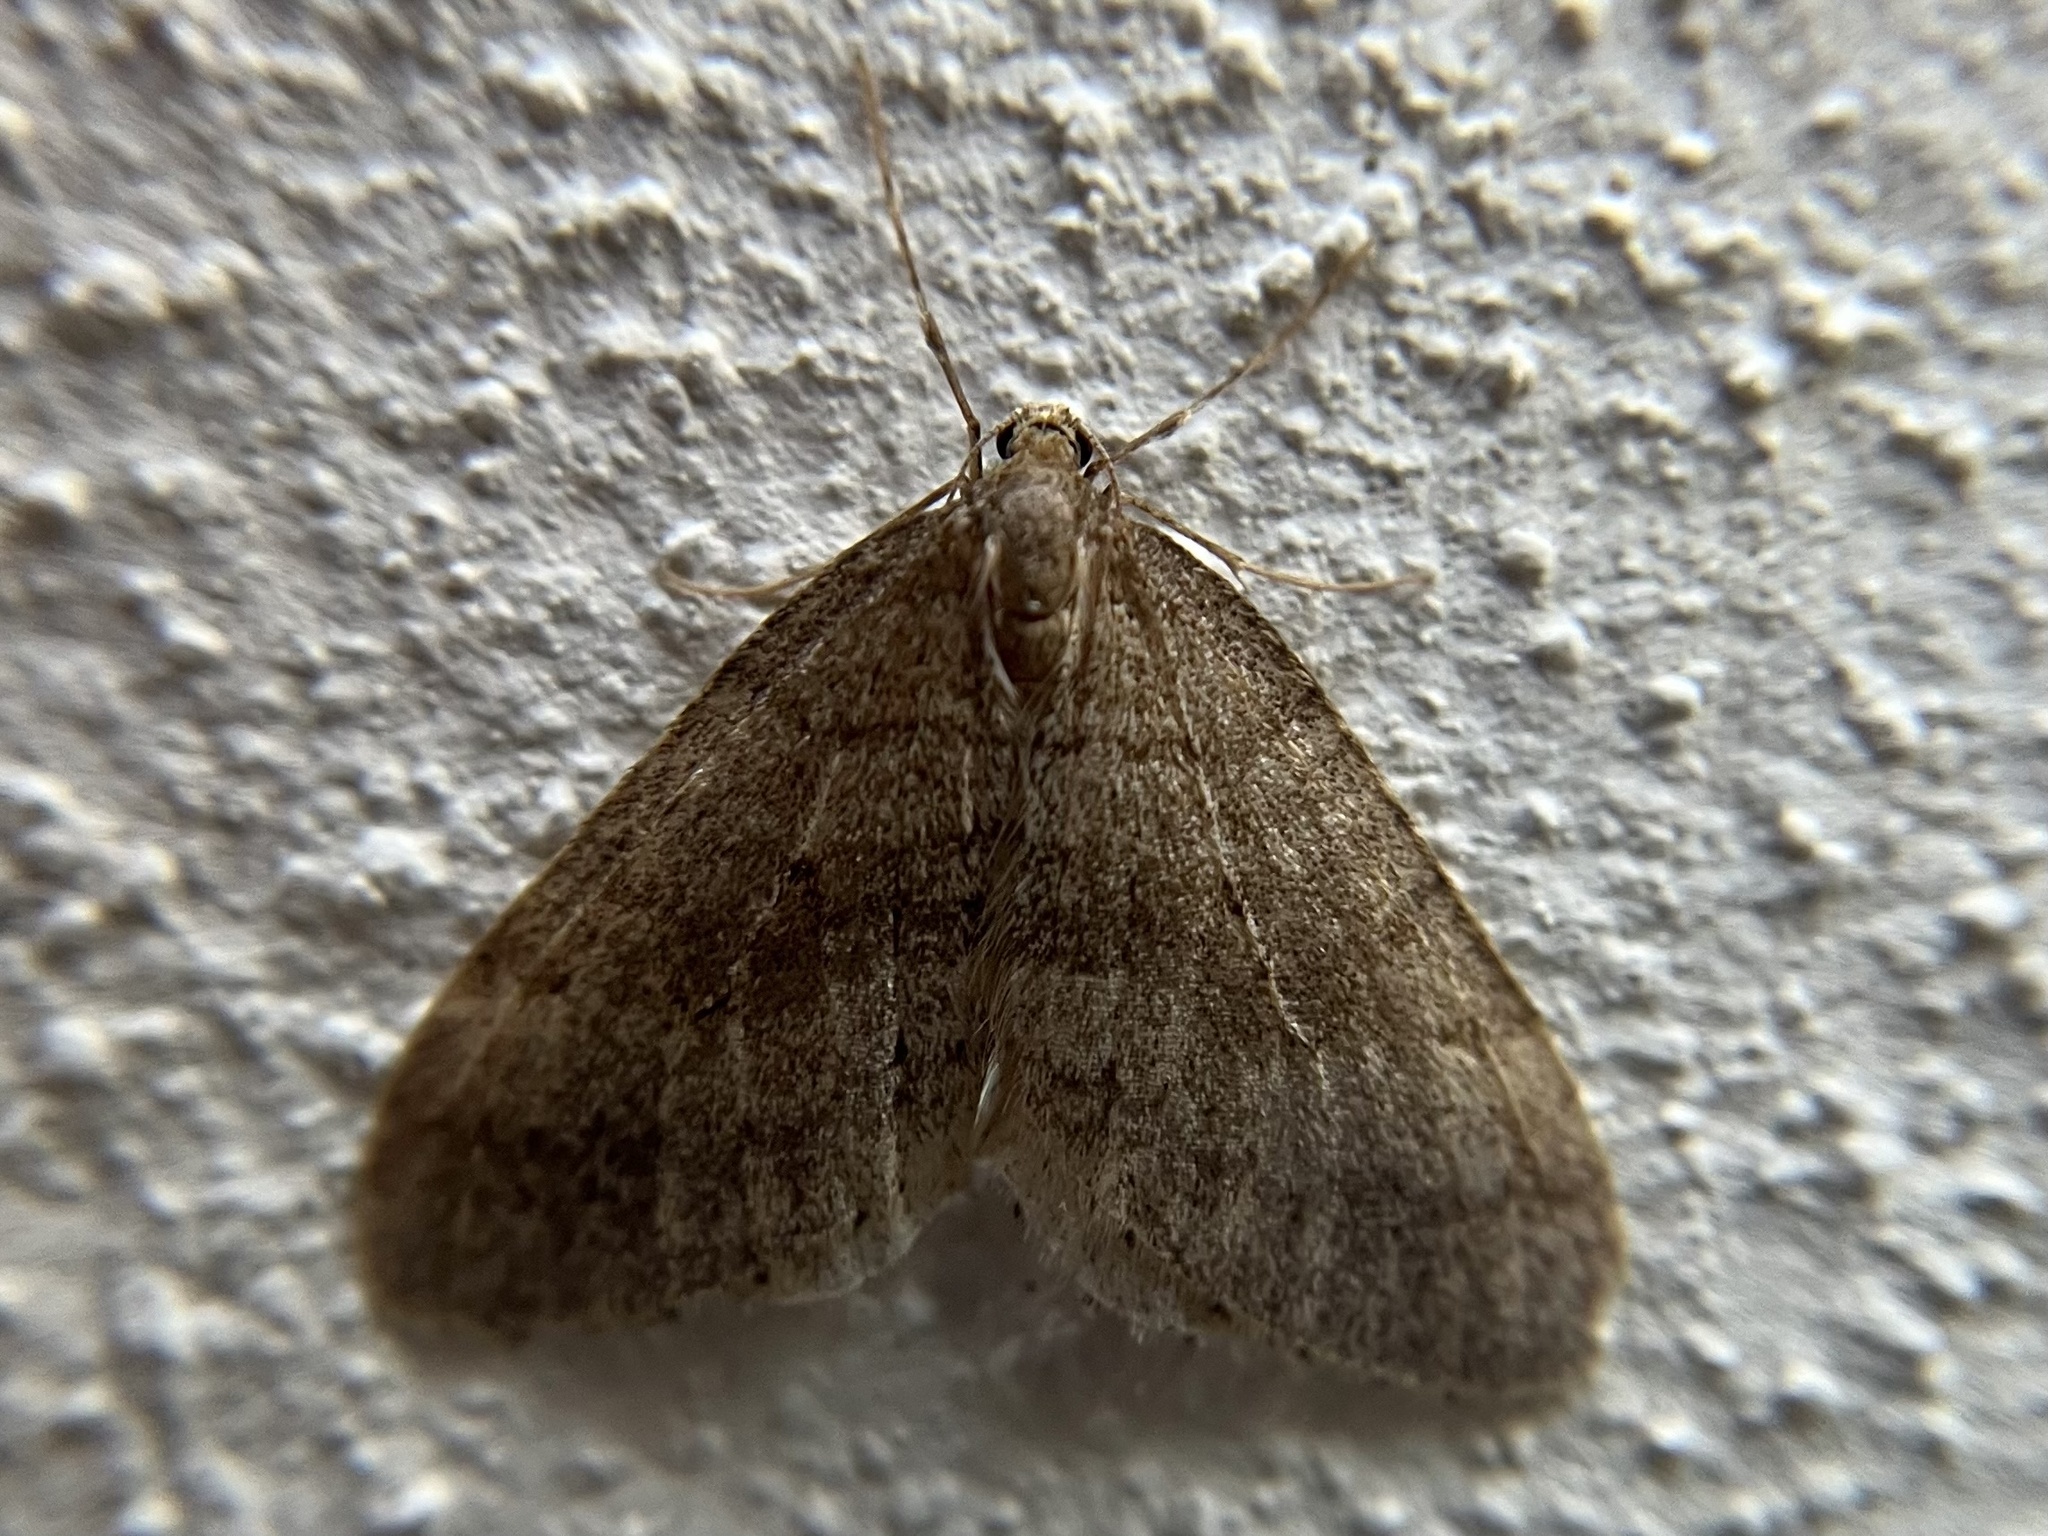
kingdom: Animalia
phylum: Arthropoda
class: Insecta
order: Lepidoptera
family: Geometridae
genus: Operophtera
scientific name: Operophtera brumata
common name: Winter moth
